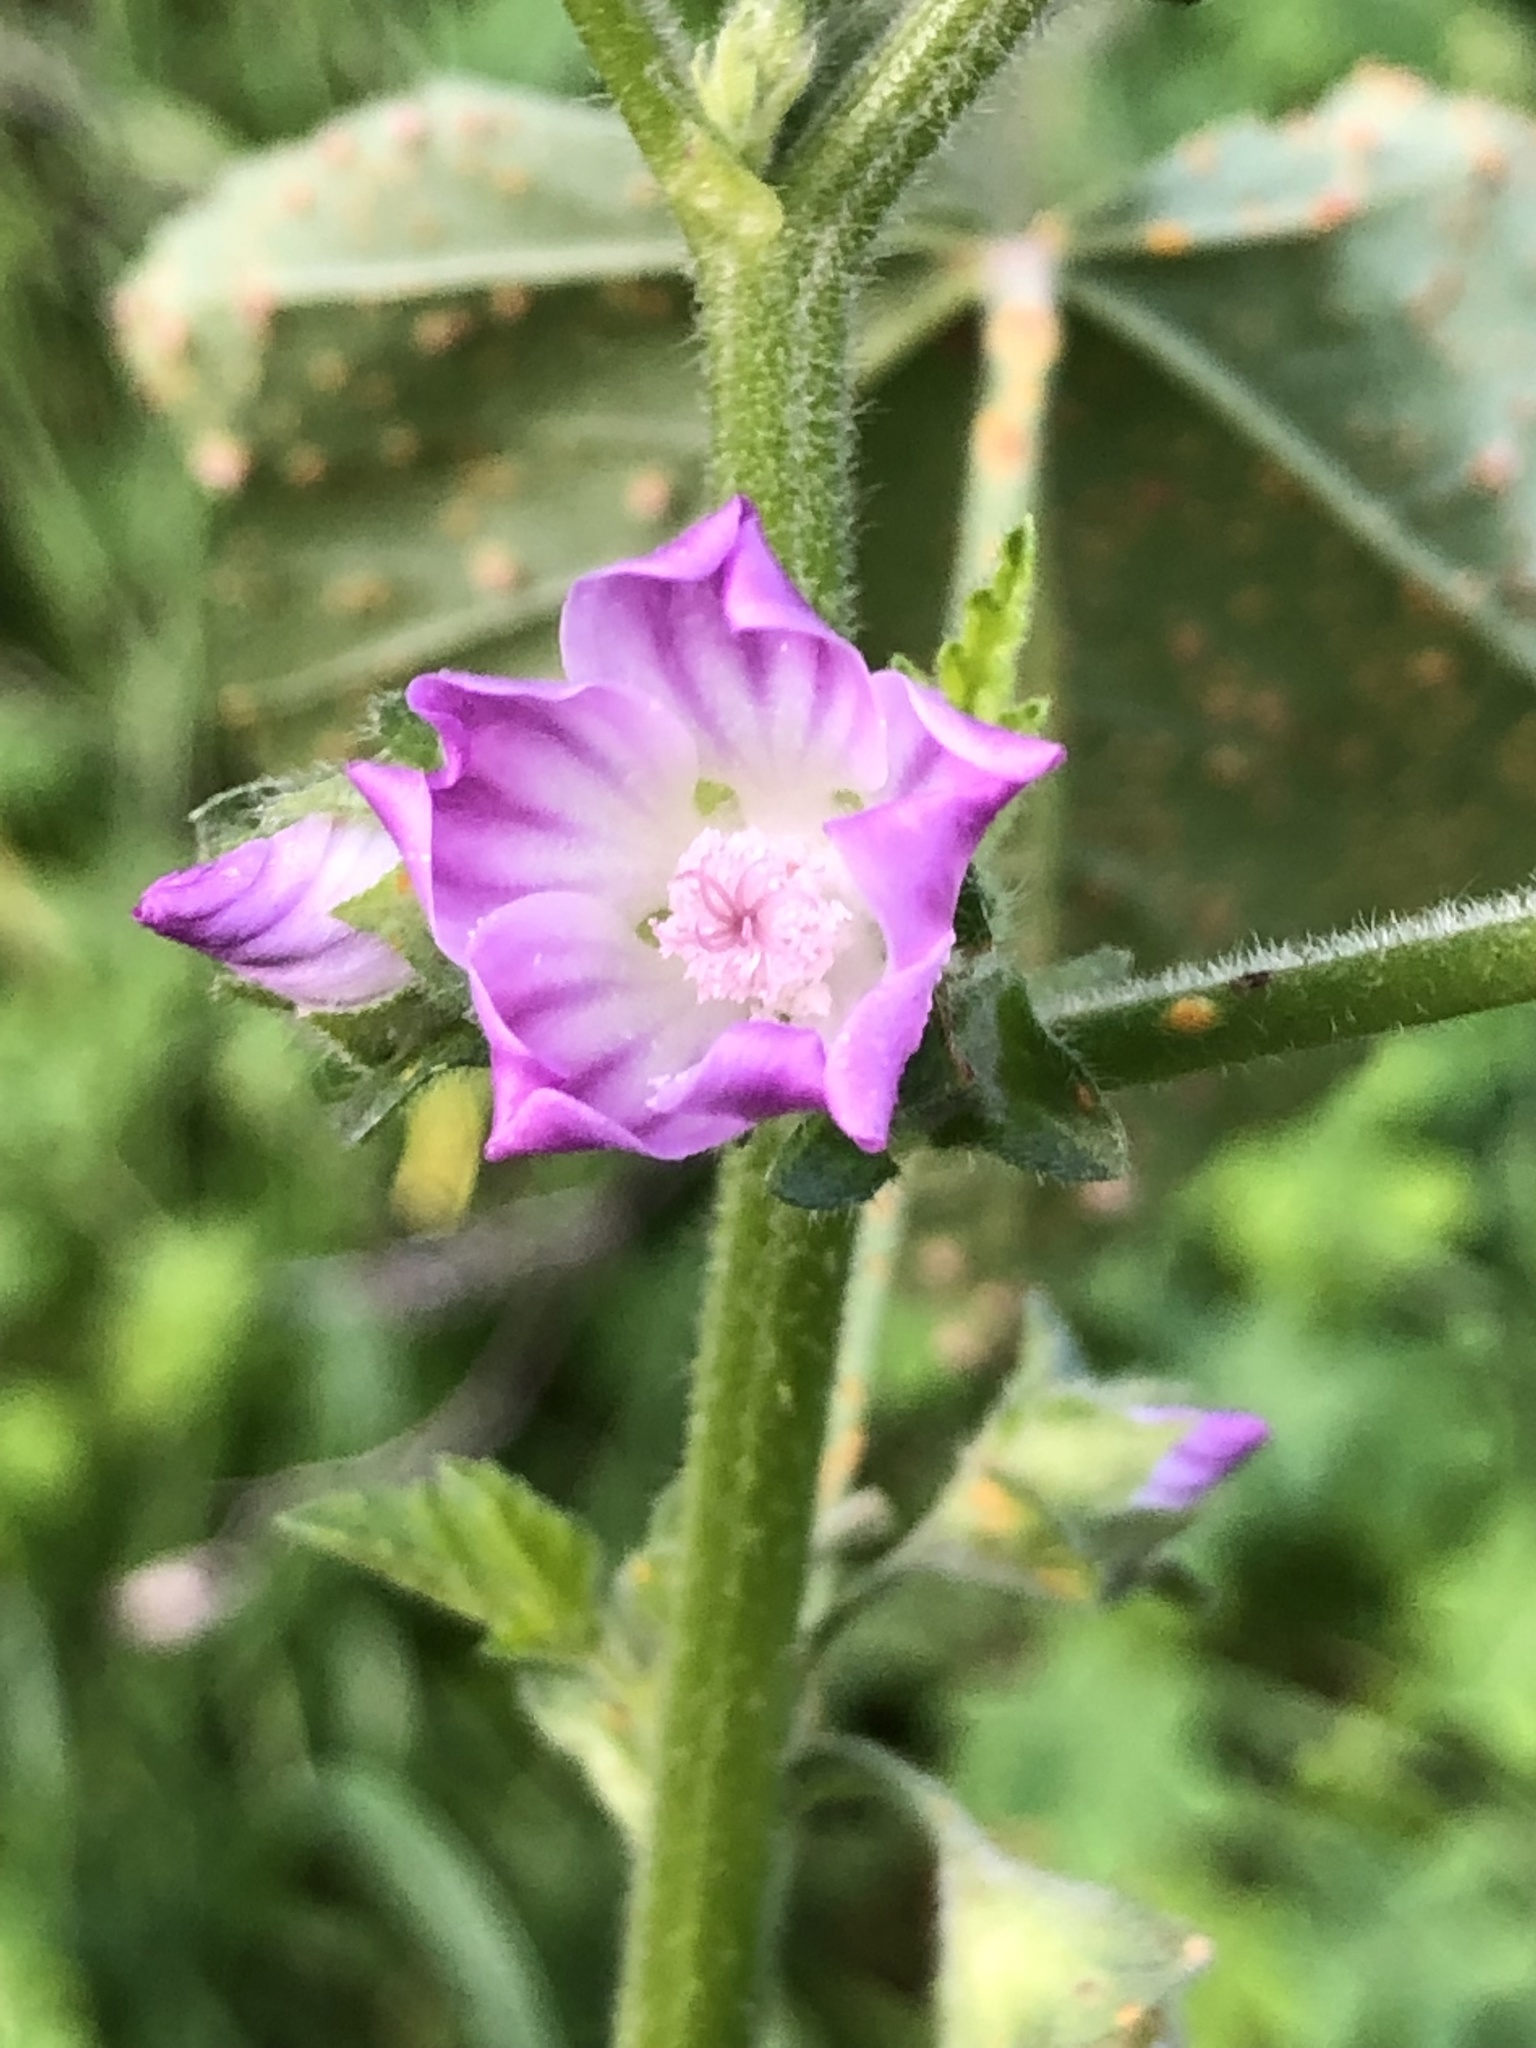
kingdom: Plantae
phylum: Tracheophyta
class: Magnoliopsida
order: Malvales
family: Malvaceae
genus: Malva
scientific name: Malva multiflora
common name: Cheeseweed
